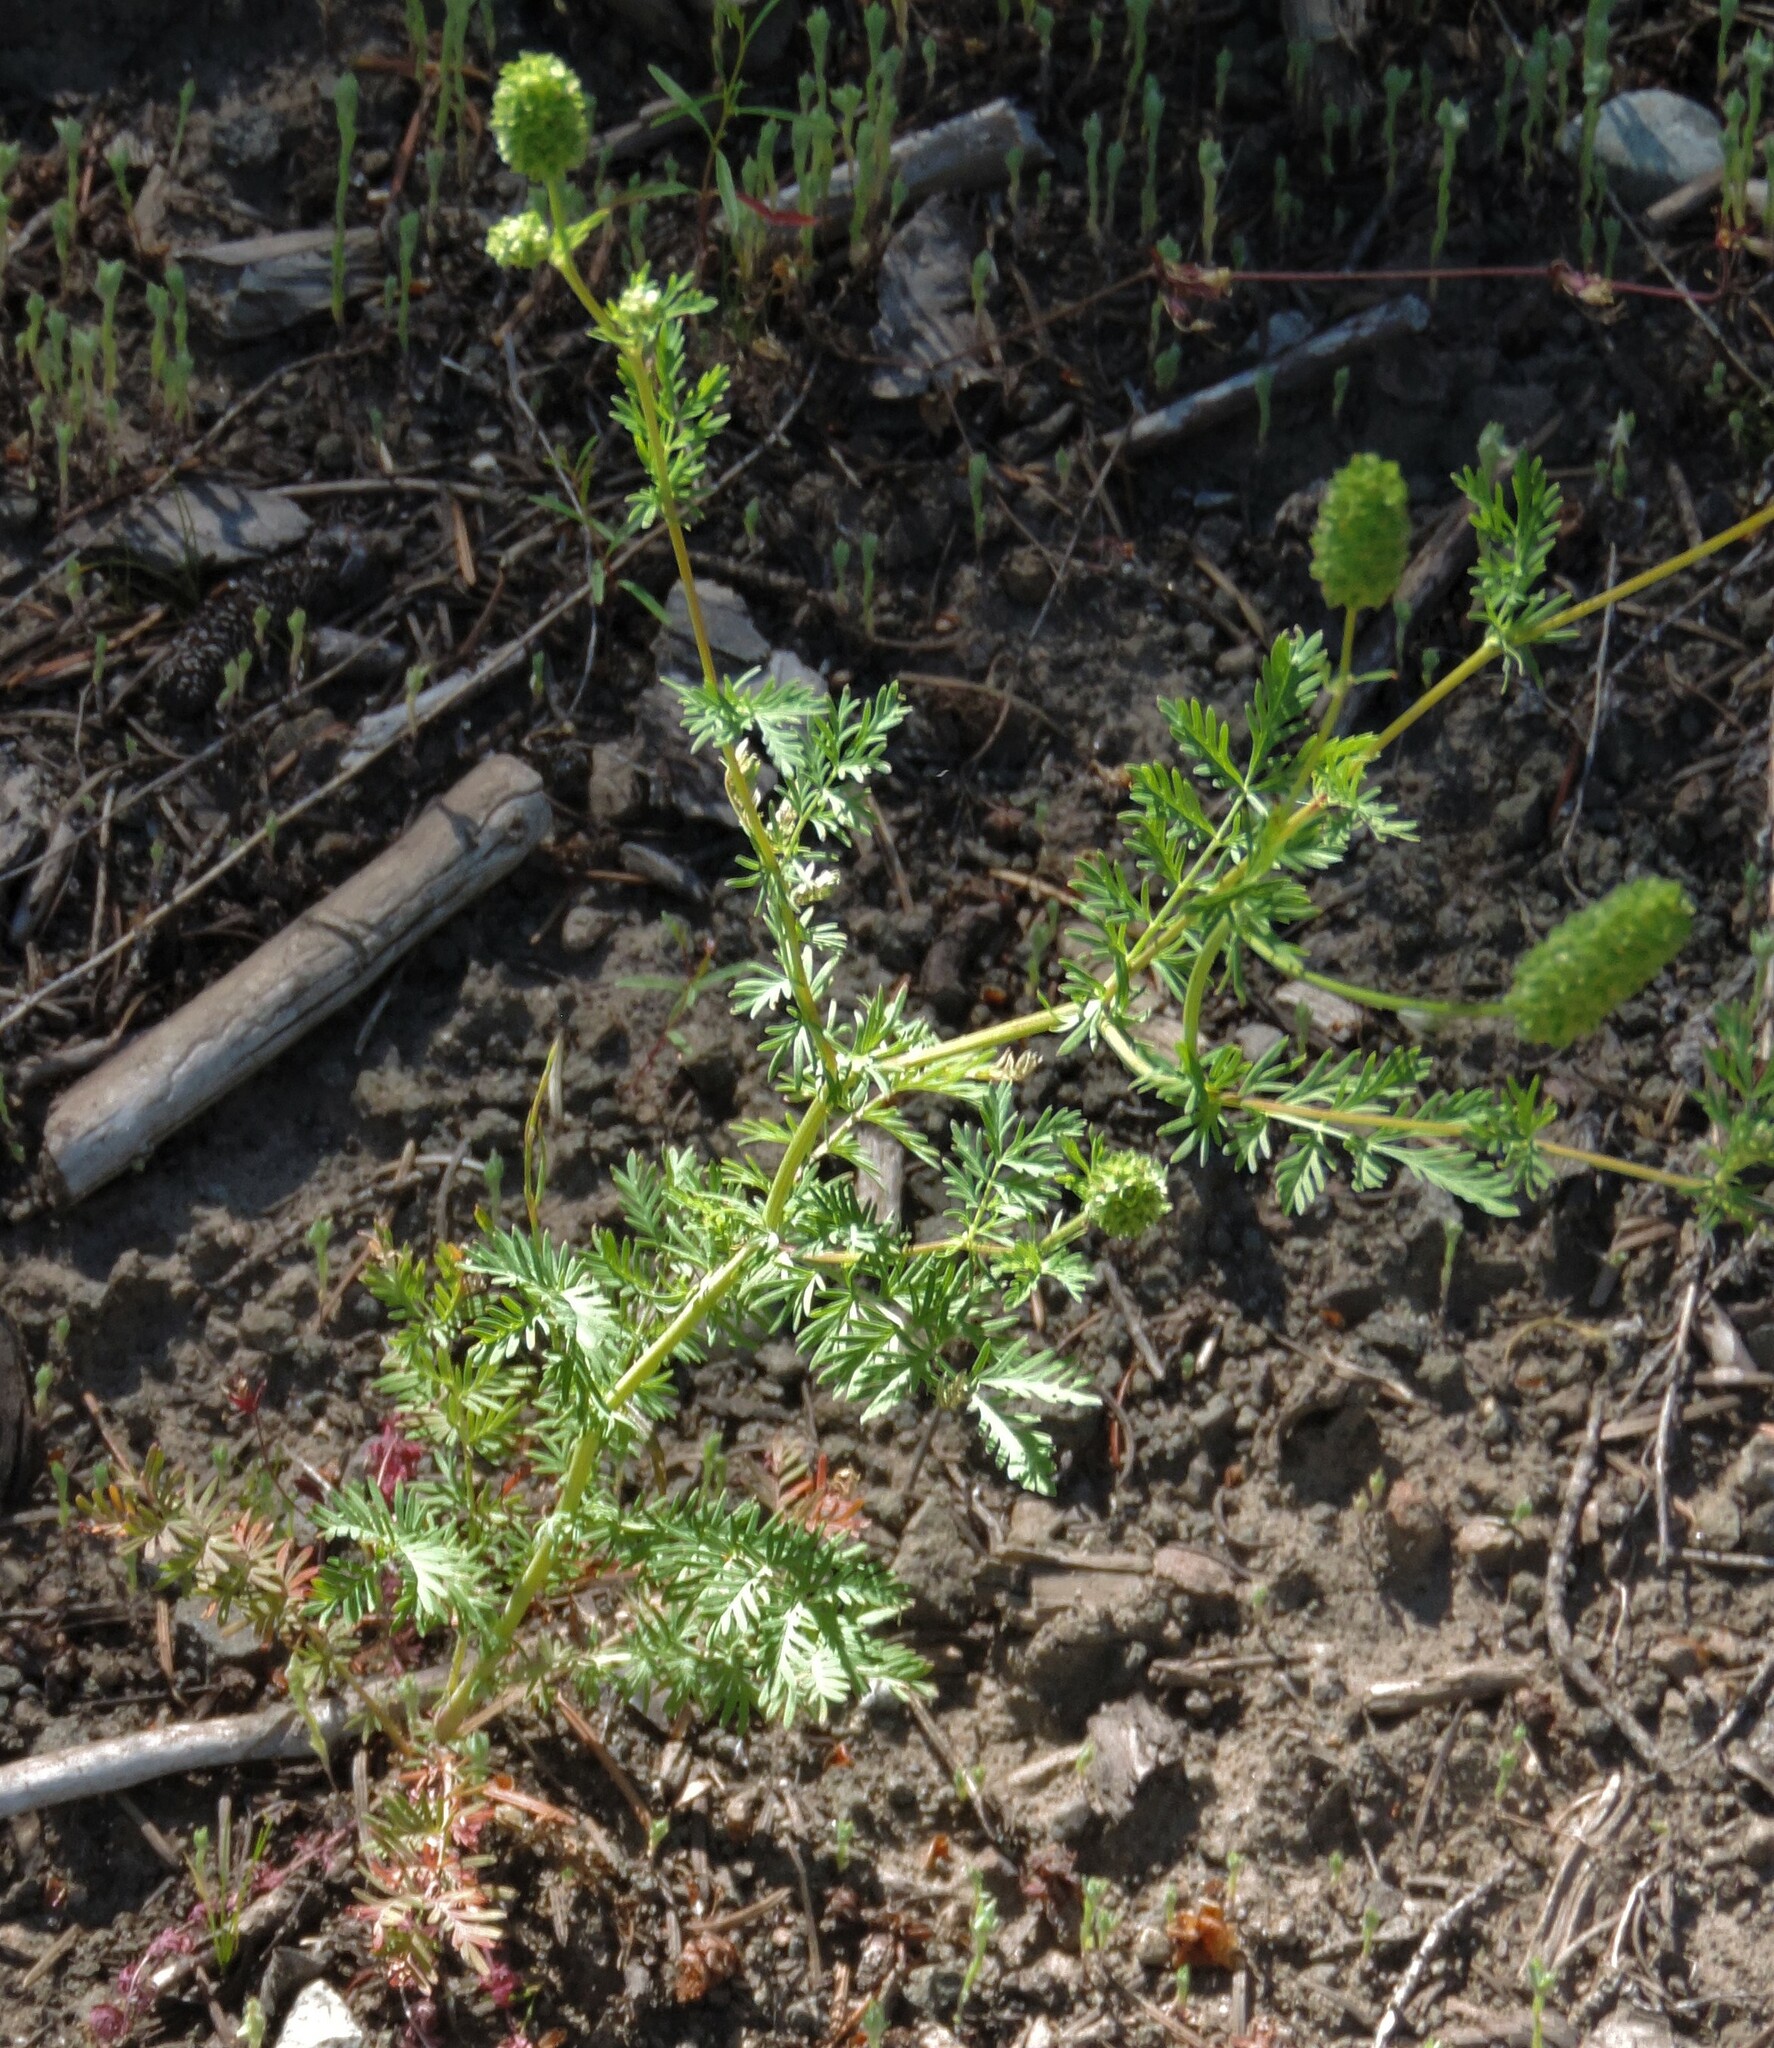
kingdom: Plantae
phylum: Tracheophyta
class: Magnoliopsida
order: Rosales
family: Rosaceae
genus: Poteridium
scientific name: Poteridium annuum
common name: Annual burnet
